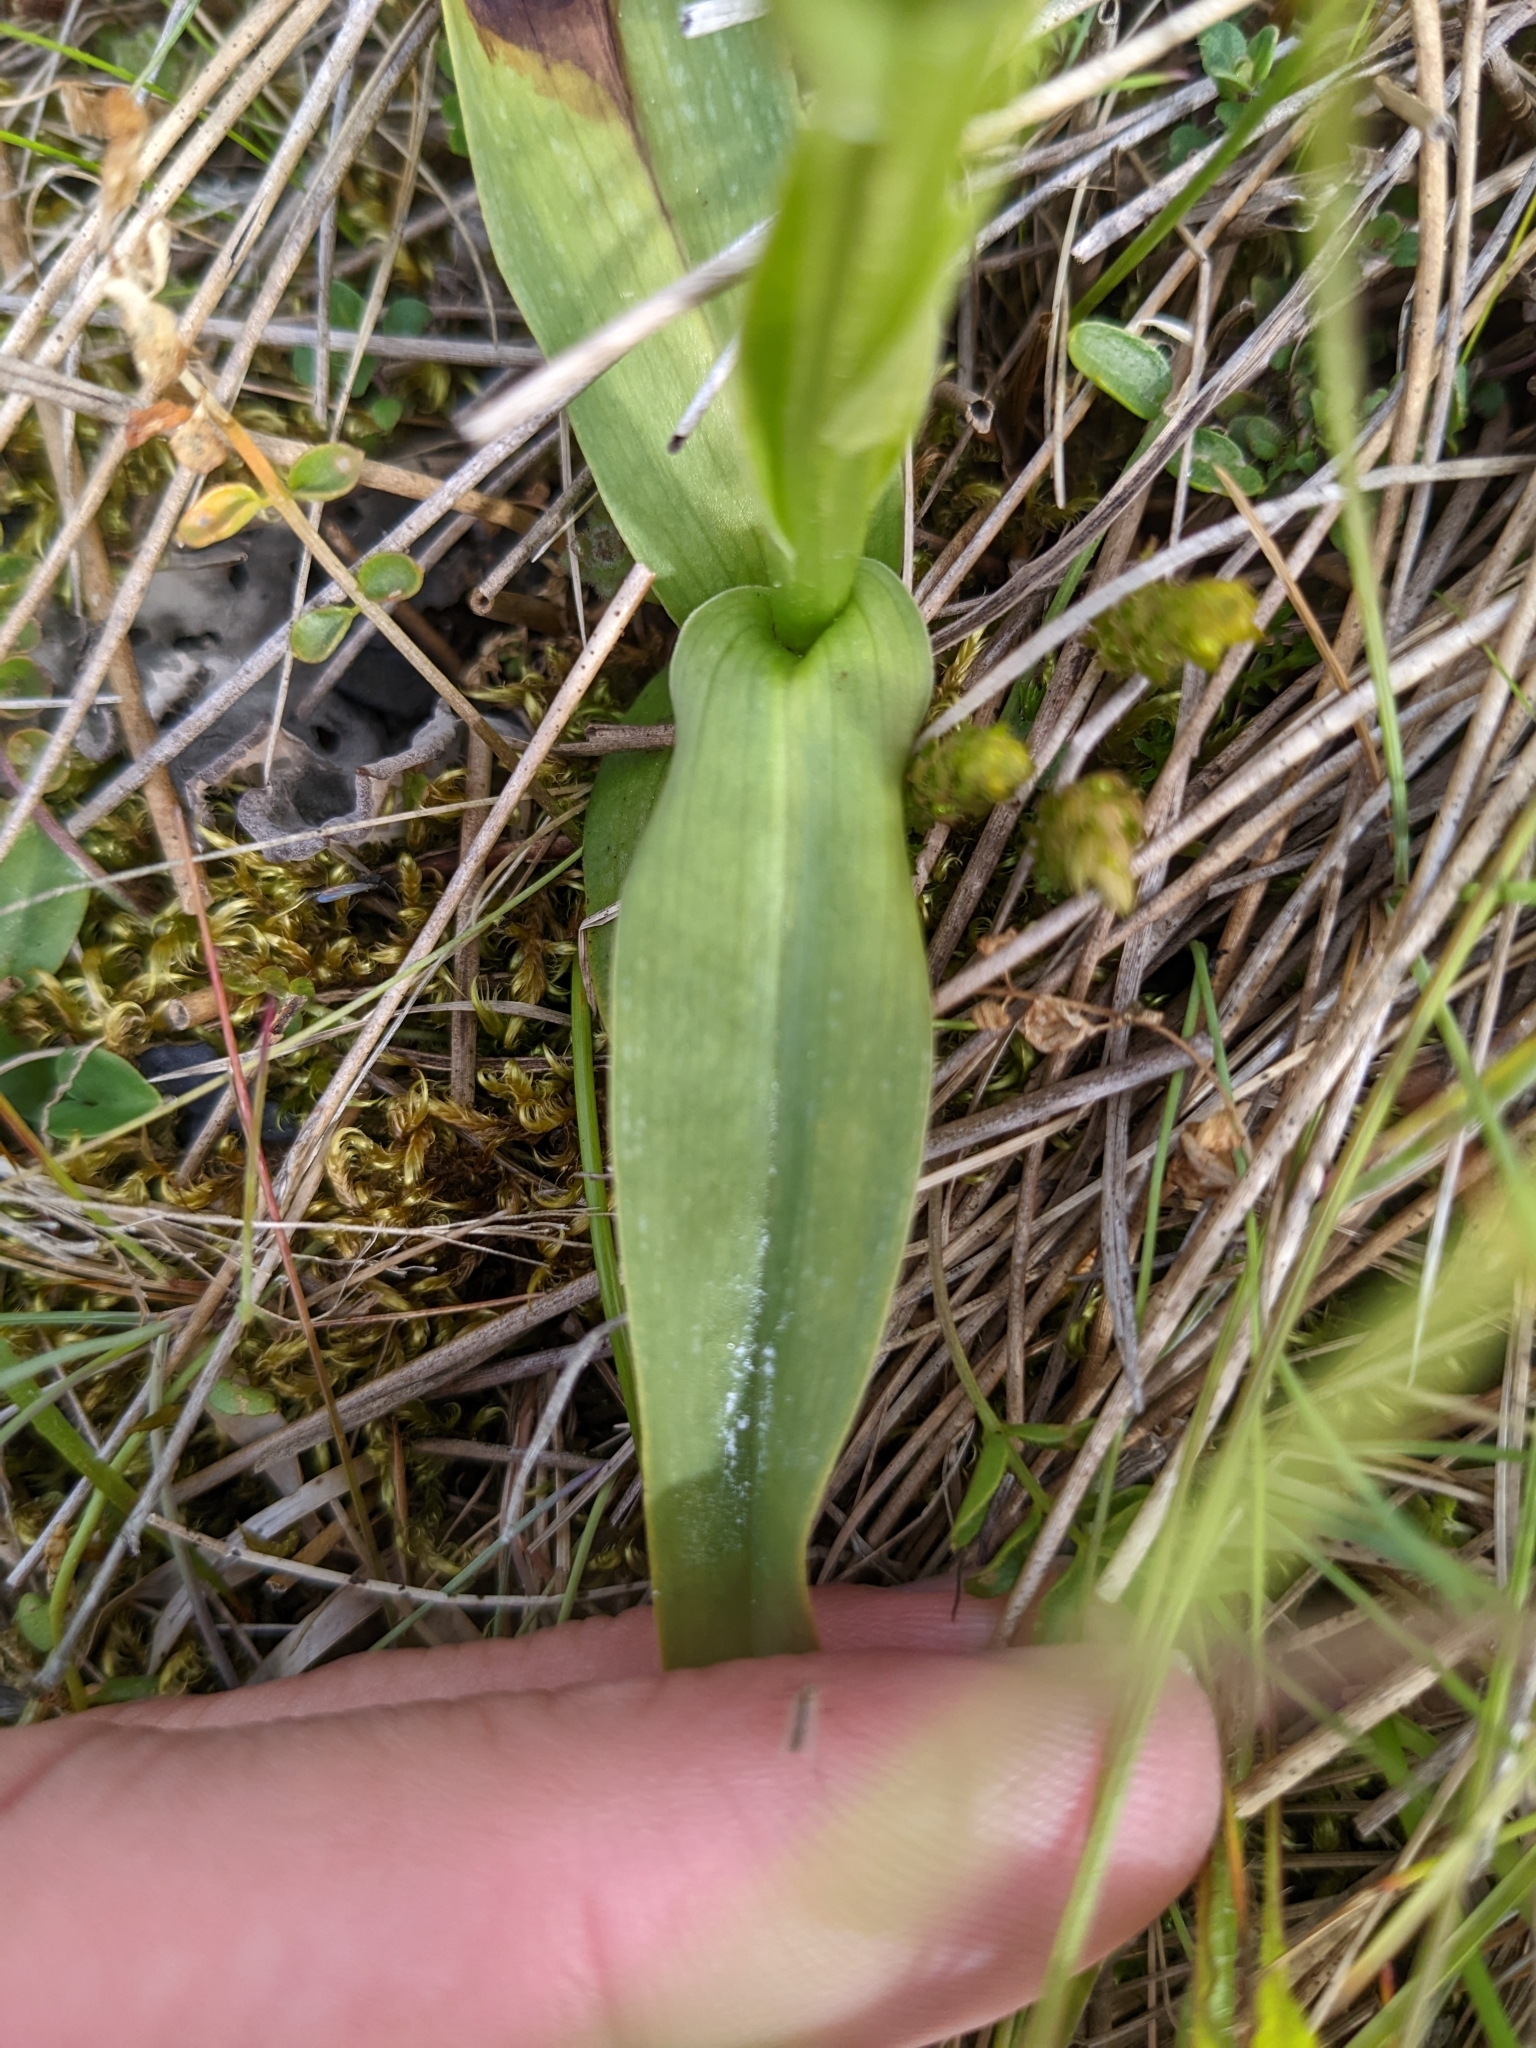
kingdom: Plantae
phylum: Tracheophyta
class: Liliopsida
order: Asparagales
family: Orchidaceae
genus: Platanthera
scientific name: Platanthera hyperborea
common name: Northern green orchid
